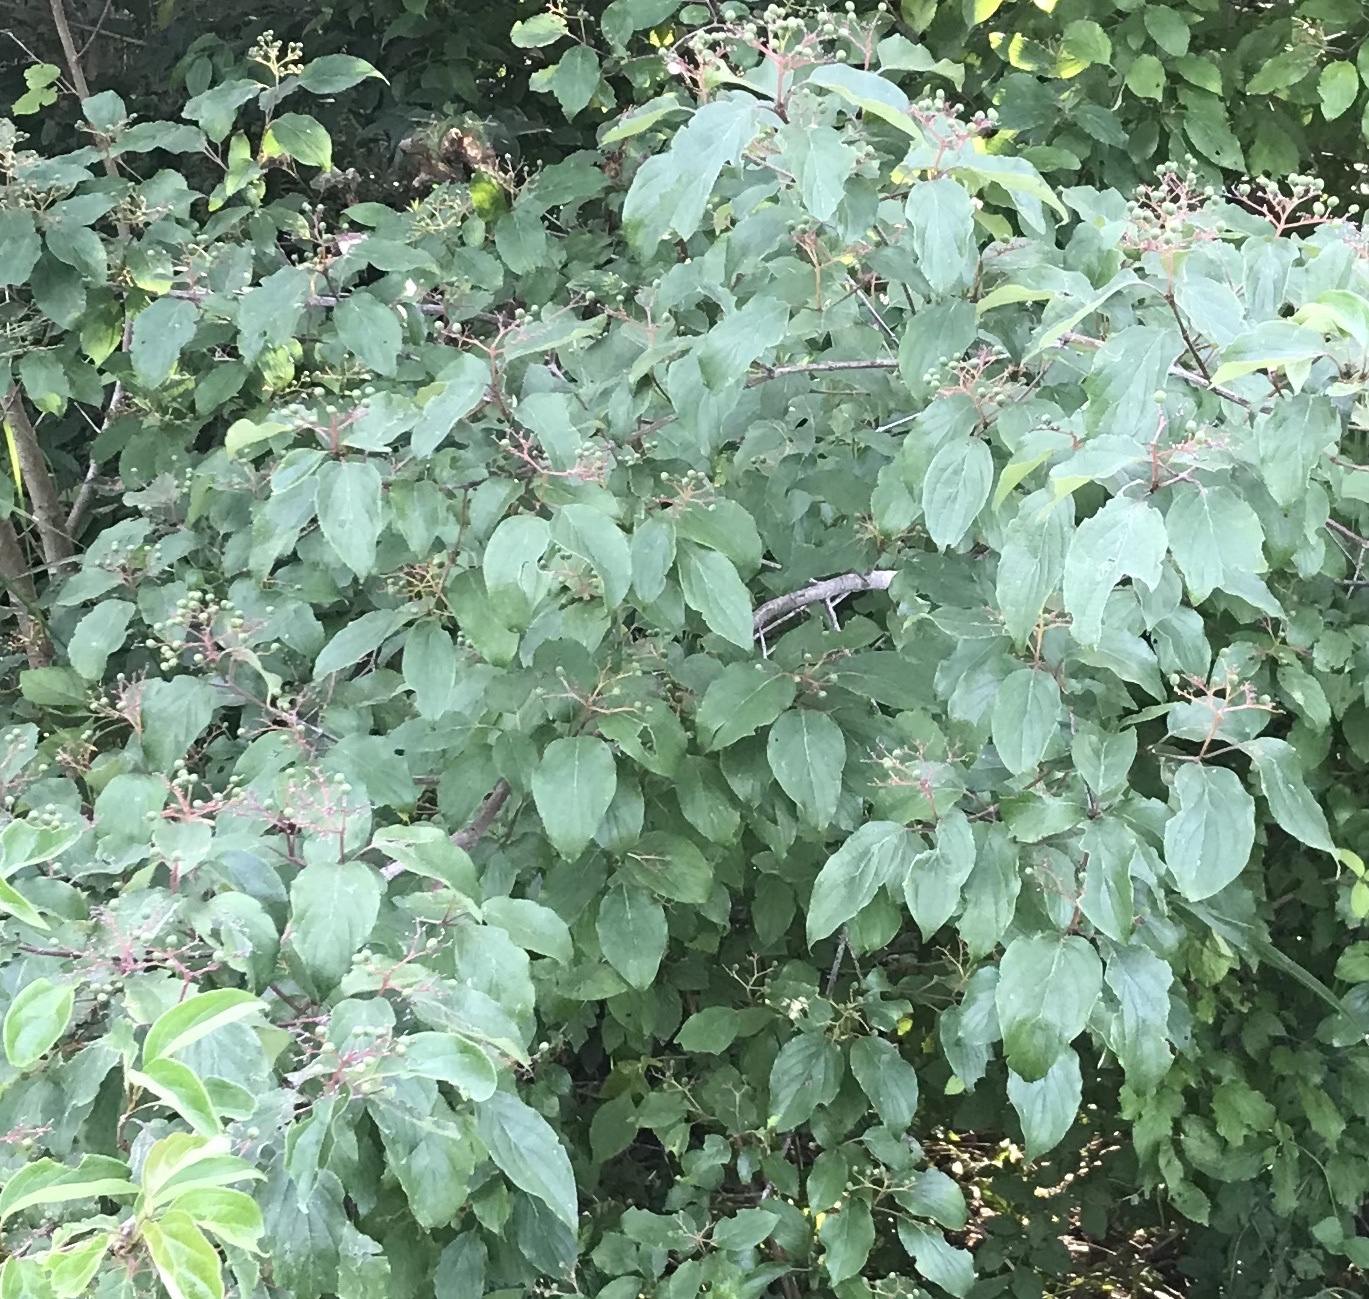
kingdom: Plantae
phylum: Tracheophyta
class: Magnoliopsida
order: Cornales
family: Cornaceae
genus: Cornus
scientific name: Cornus drummondii
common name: Rough-leaf dogwood
